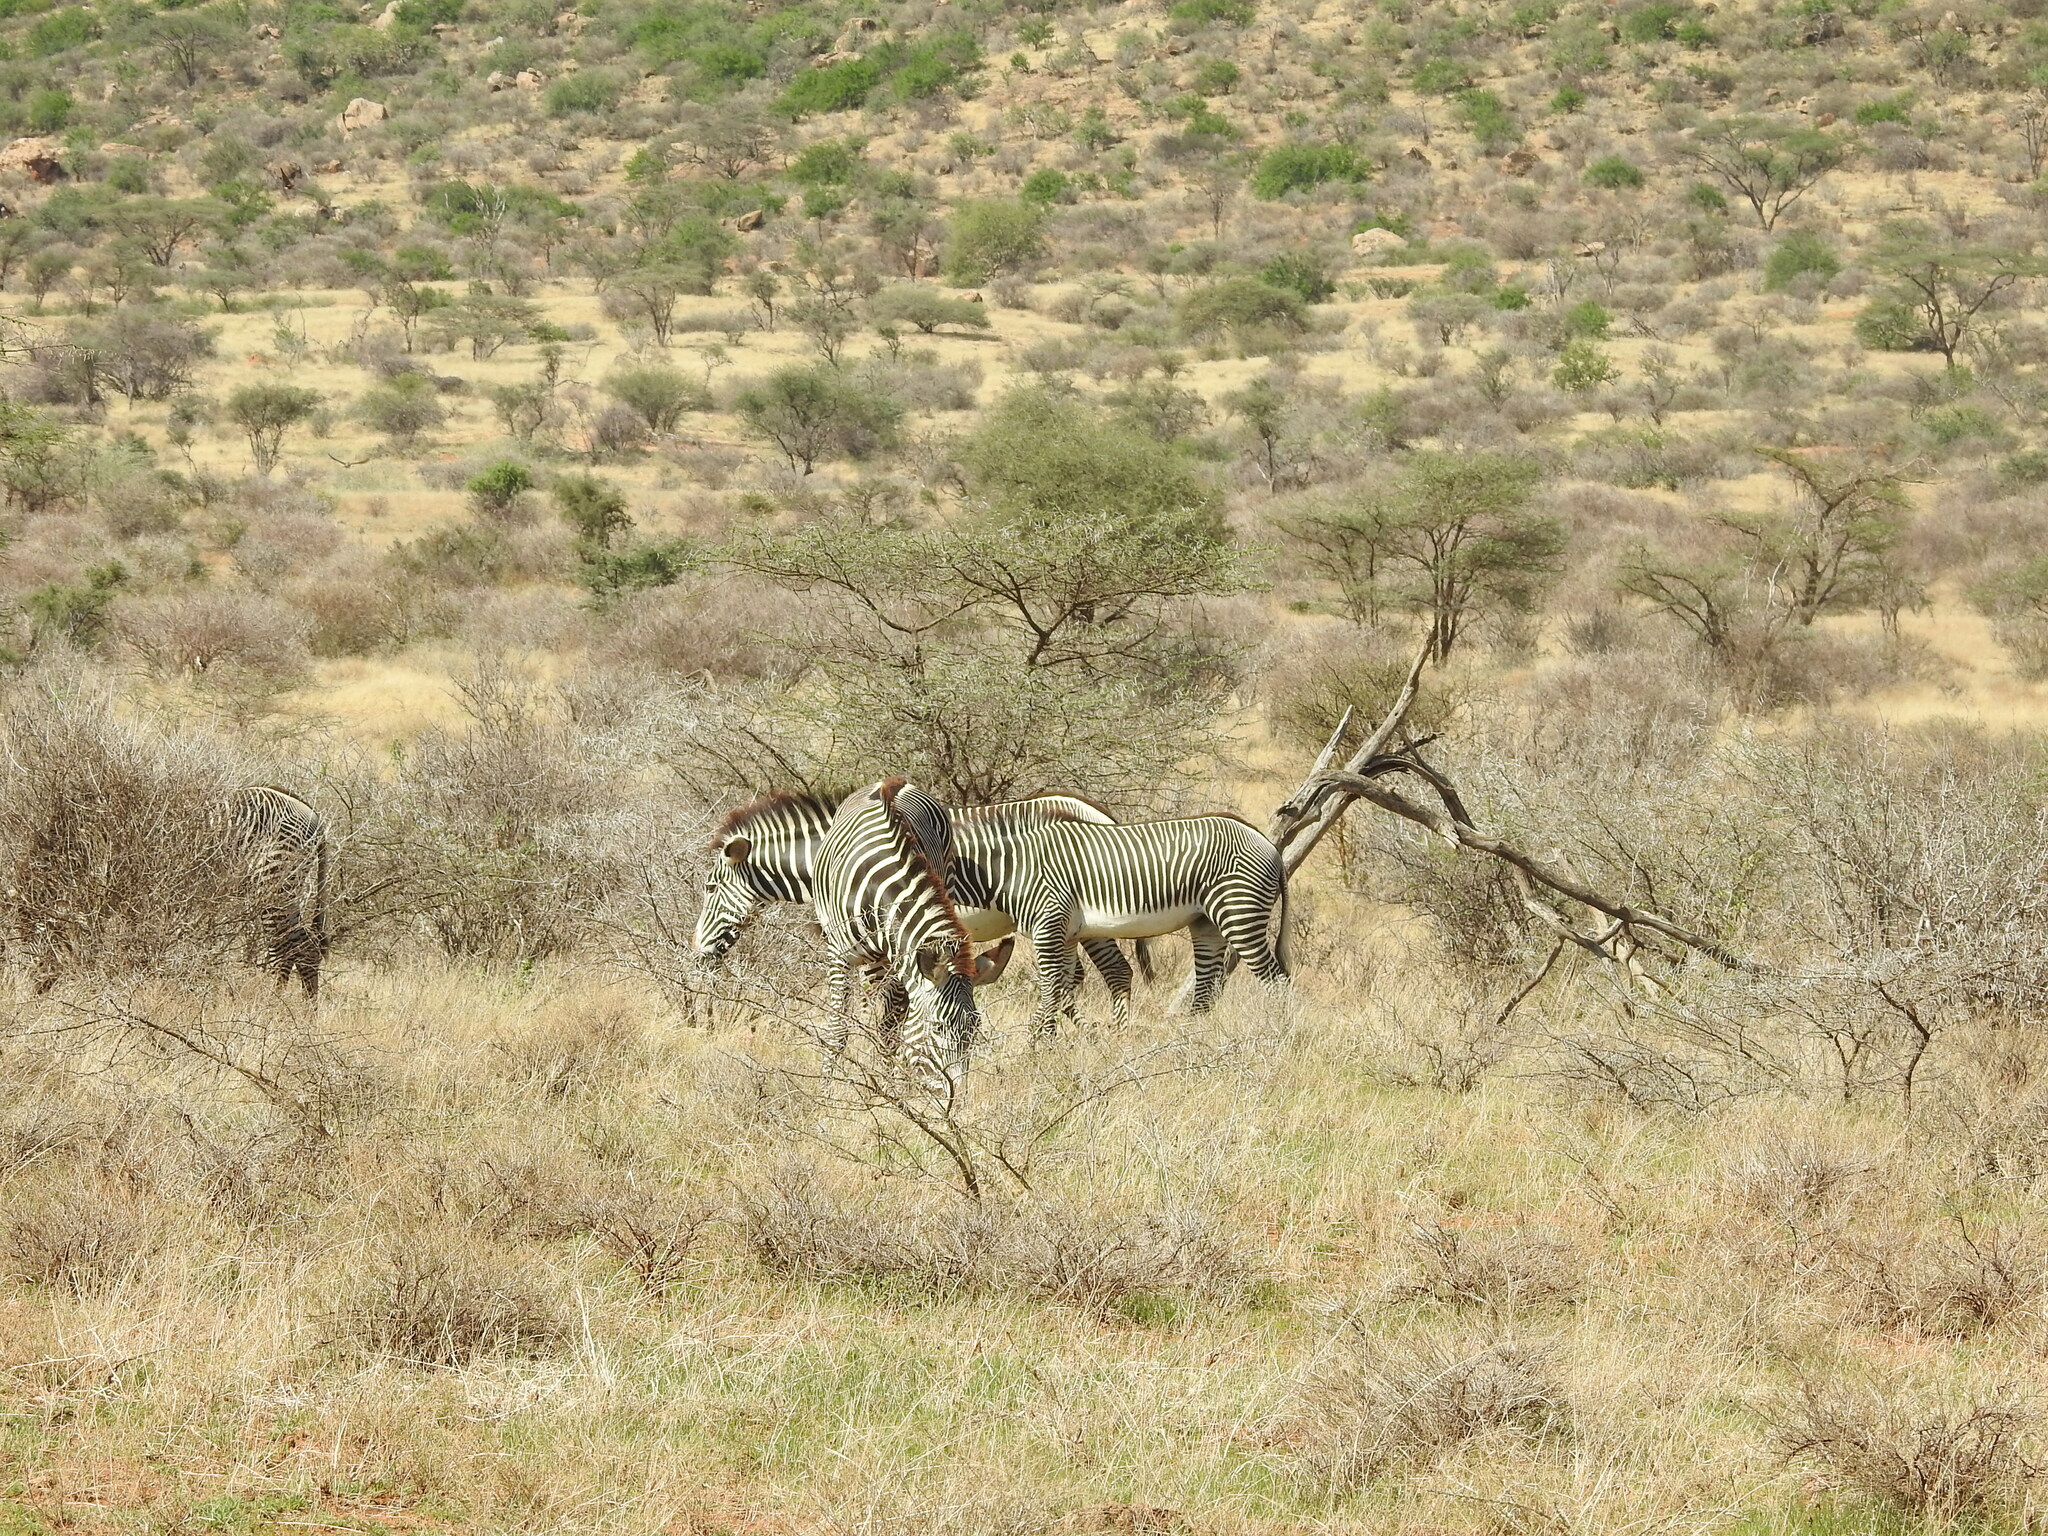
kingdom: Animalia
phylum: Chordata
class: Mammalia
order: Perissodactyla
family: Equidae
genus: Equus
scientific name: Equus grevyi
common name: Grevy's zebra
